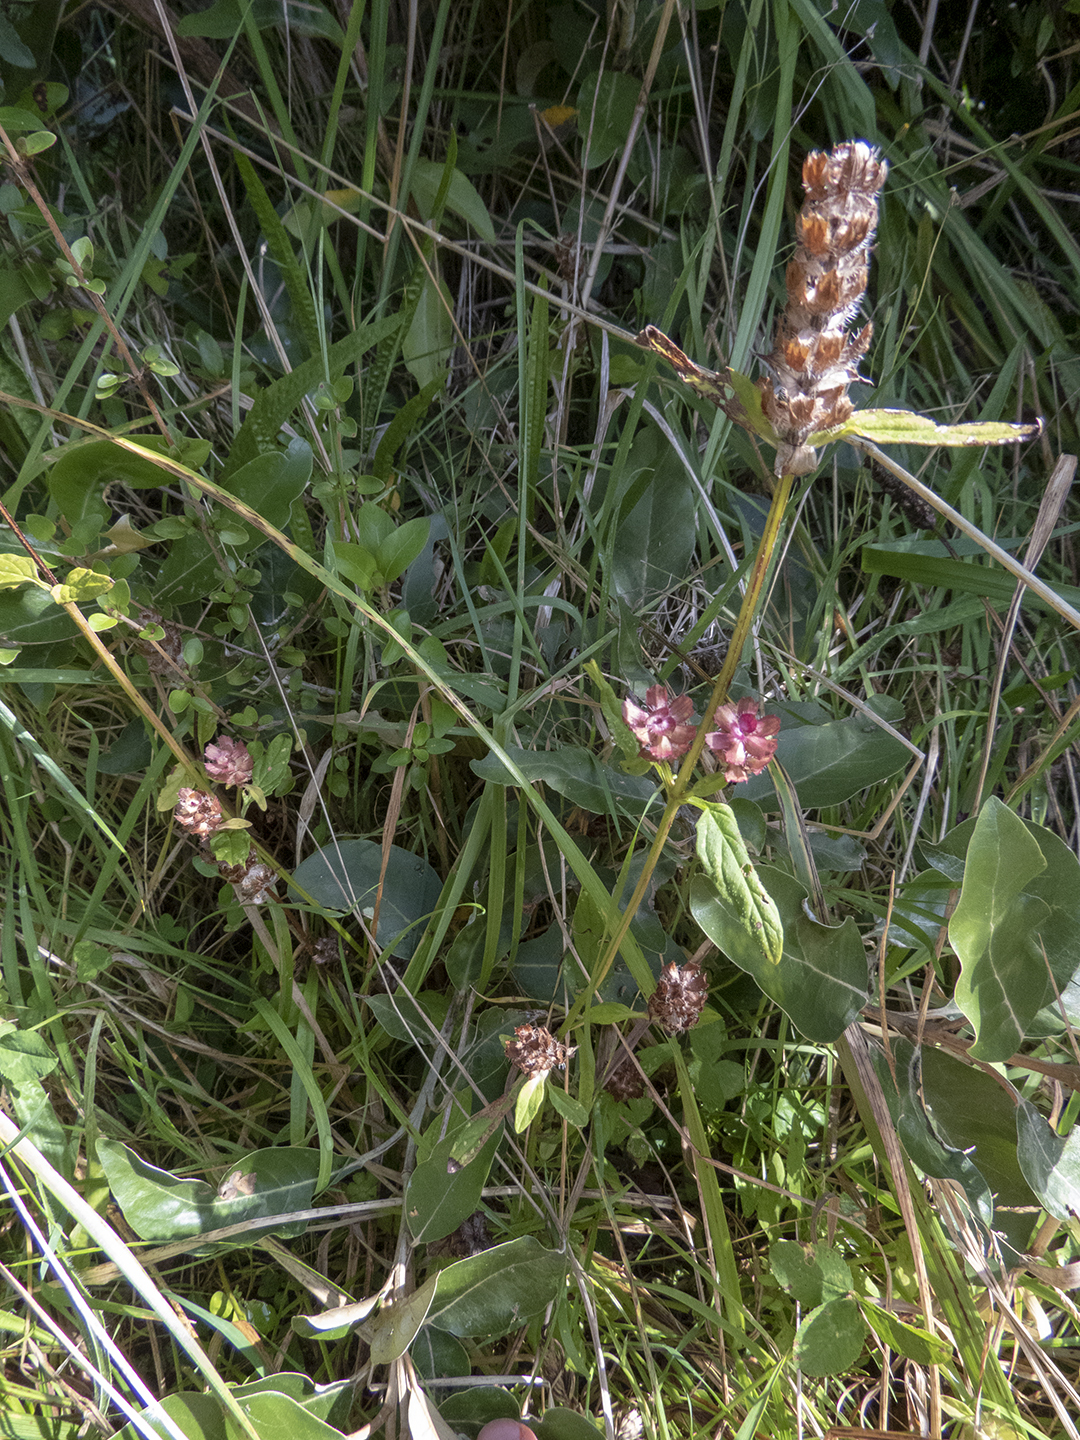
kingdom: Plantae
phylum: Tracheophyta
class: Magnoliopsida
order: Lamiales
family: Lamiaceae
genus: Prunella
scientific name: Prunella vulgaris
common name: Heal-all
